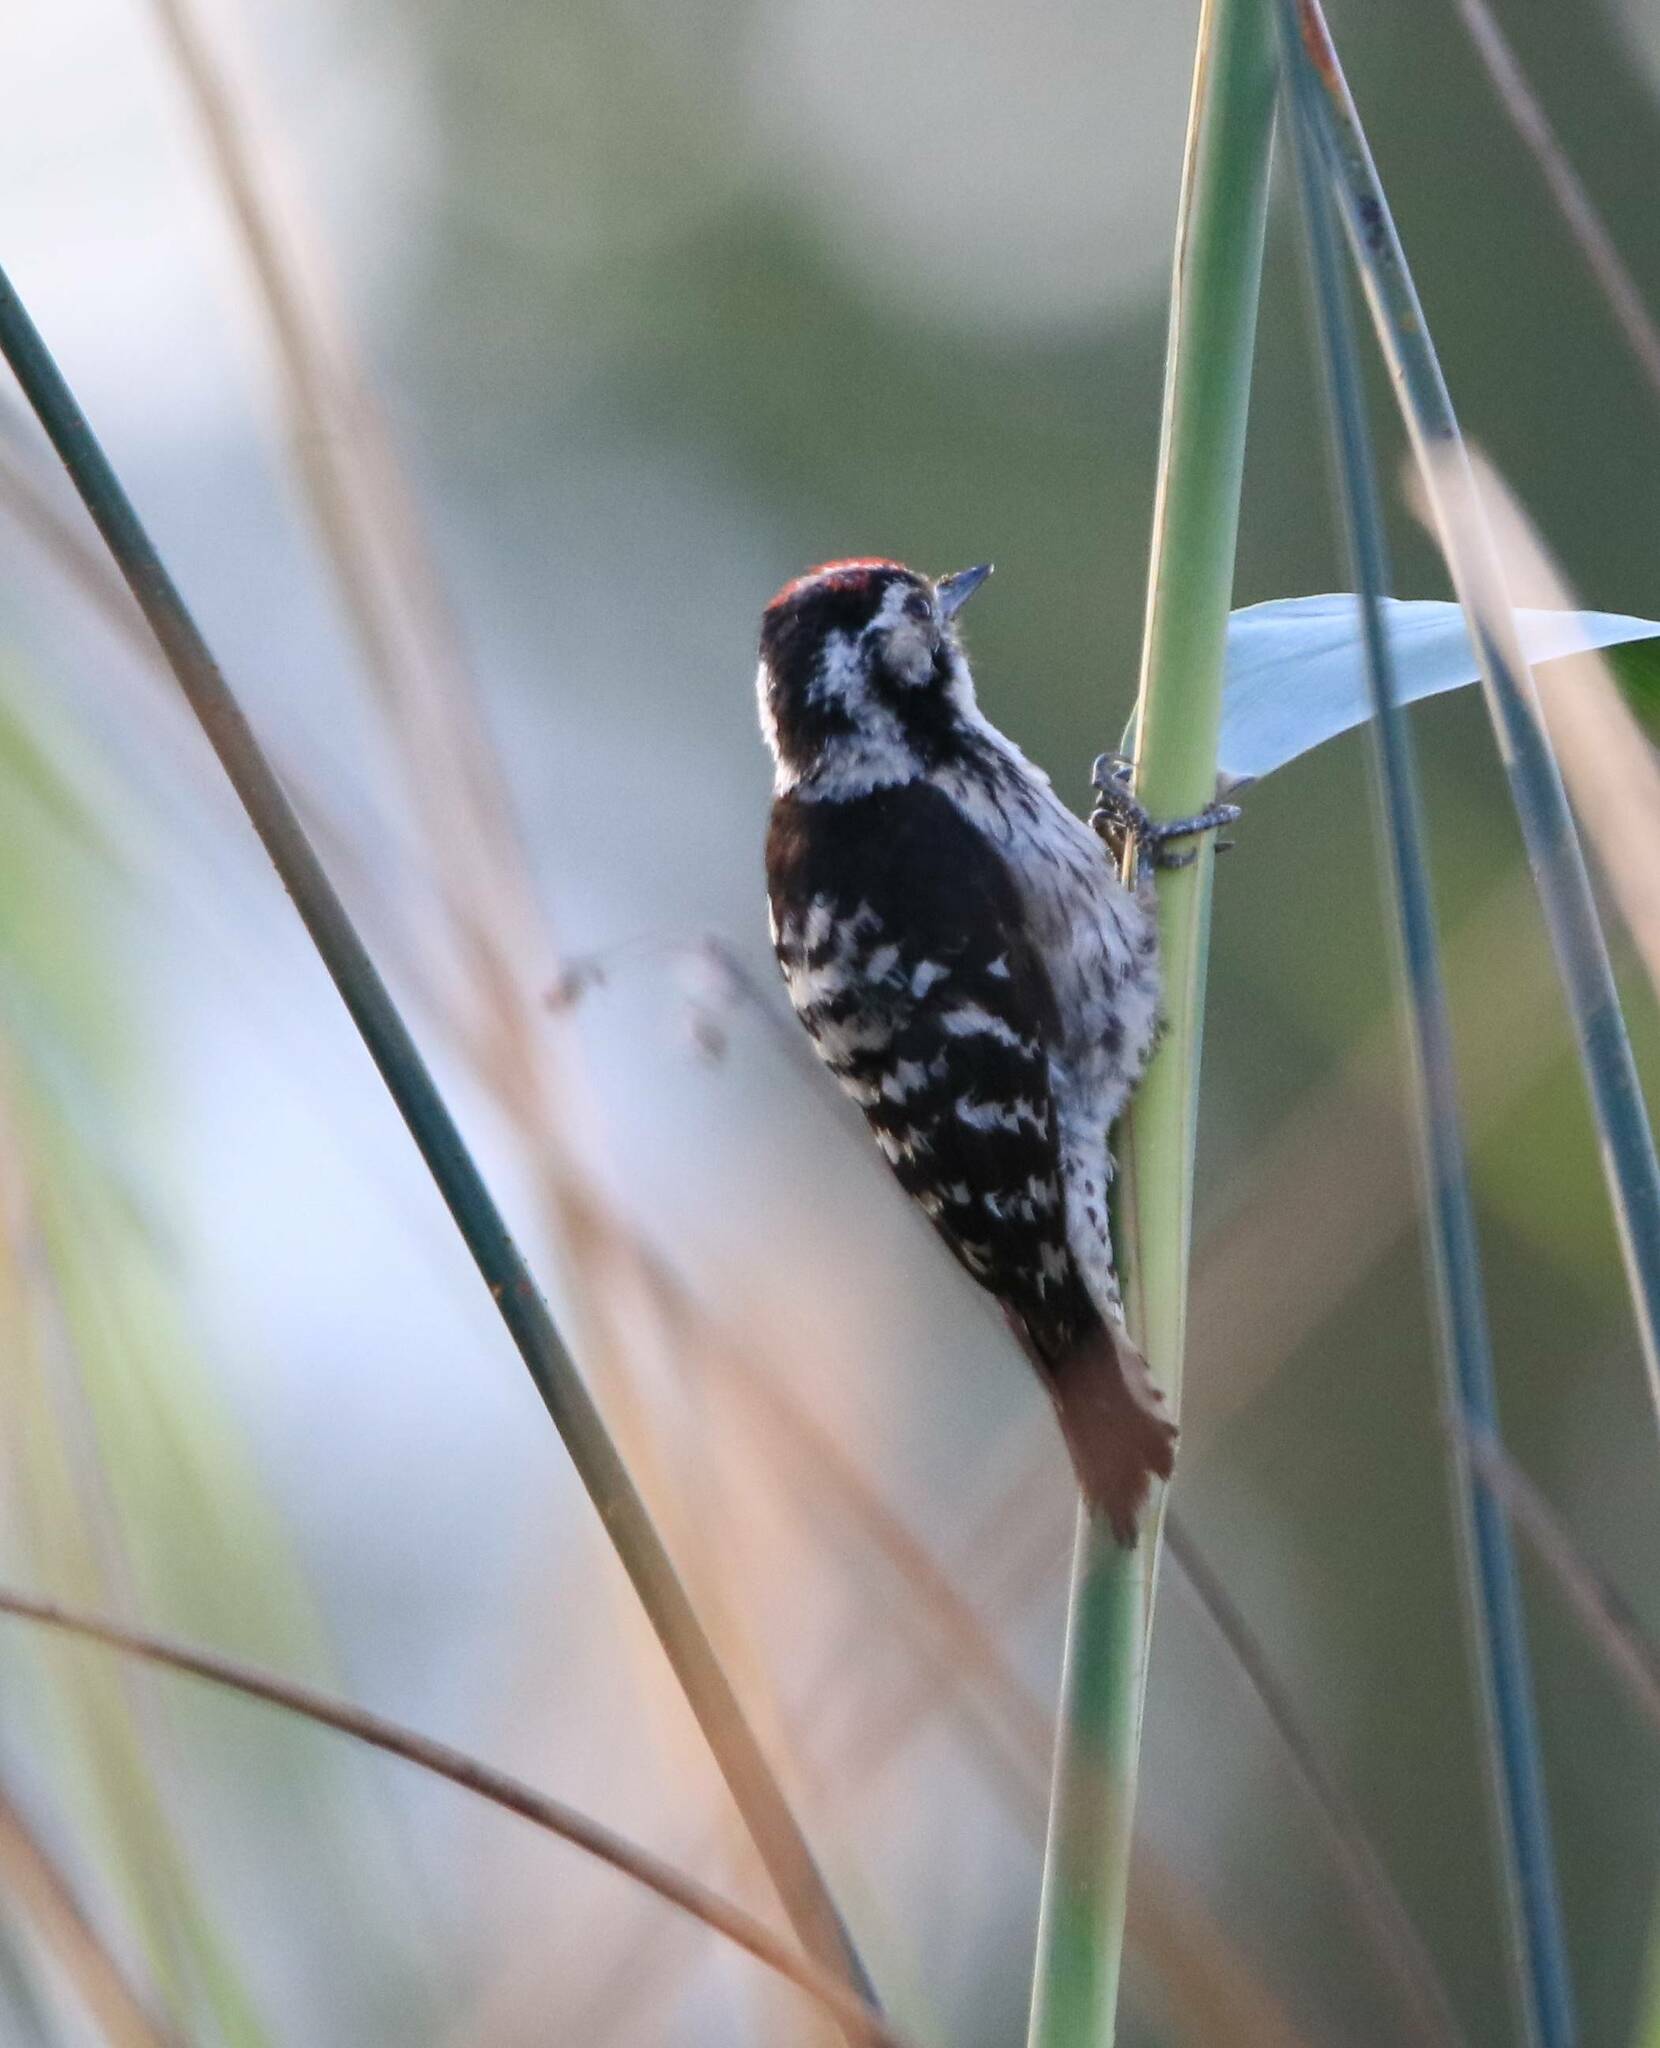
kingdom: Animalia
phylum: Chordata
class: Aves
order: Piciformes
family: Picidae
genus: Dryobates
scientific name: Dryobates minor
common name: Lesser spotted woodpecker
